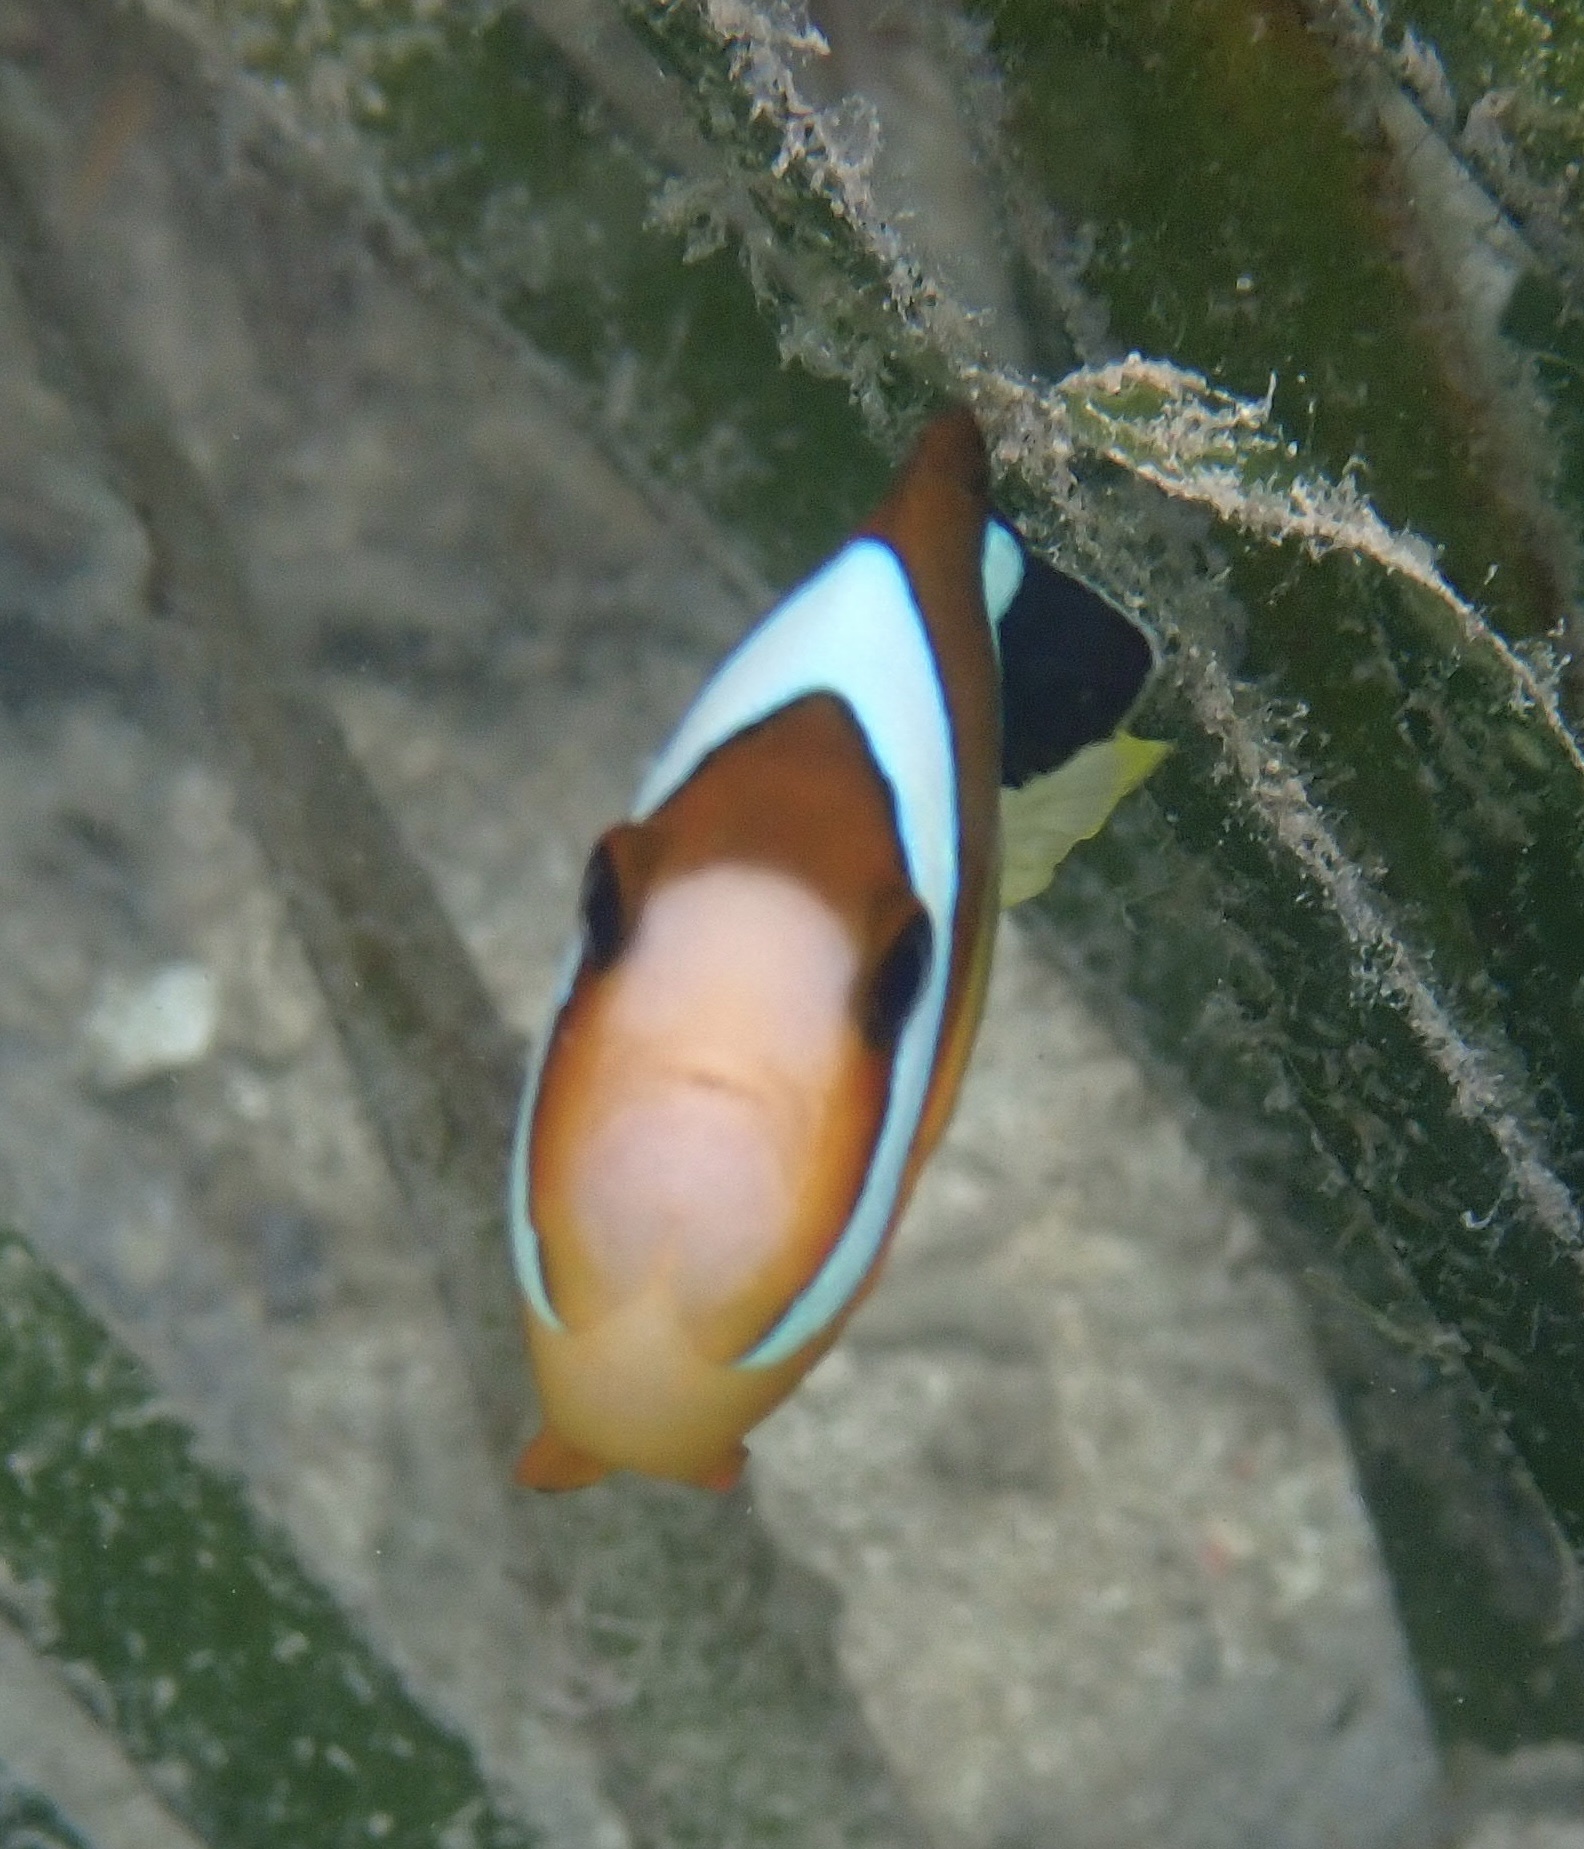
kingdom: Animalia
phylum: Chordata
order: Perciformes
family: Pomacentridae
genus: Amphiprion
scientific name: Amphiprion clarkii
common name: Clark's anemonefish
